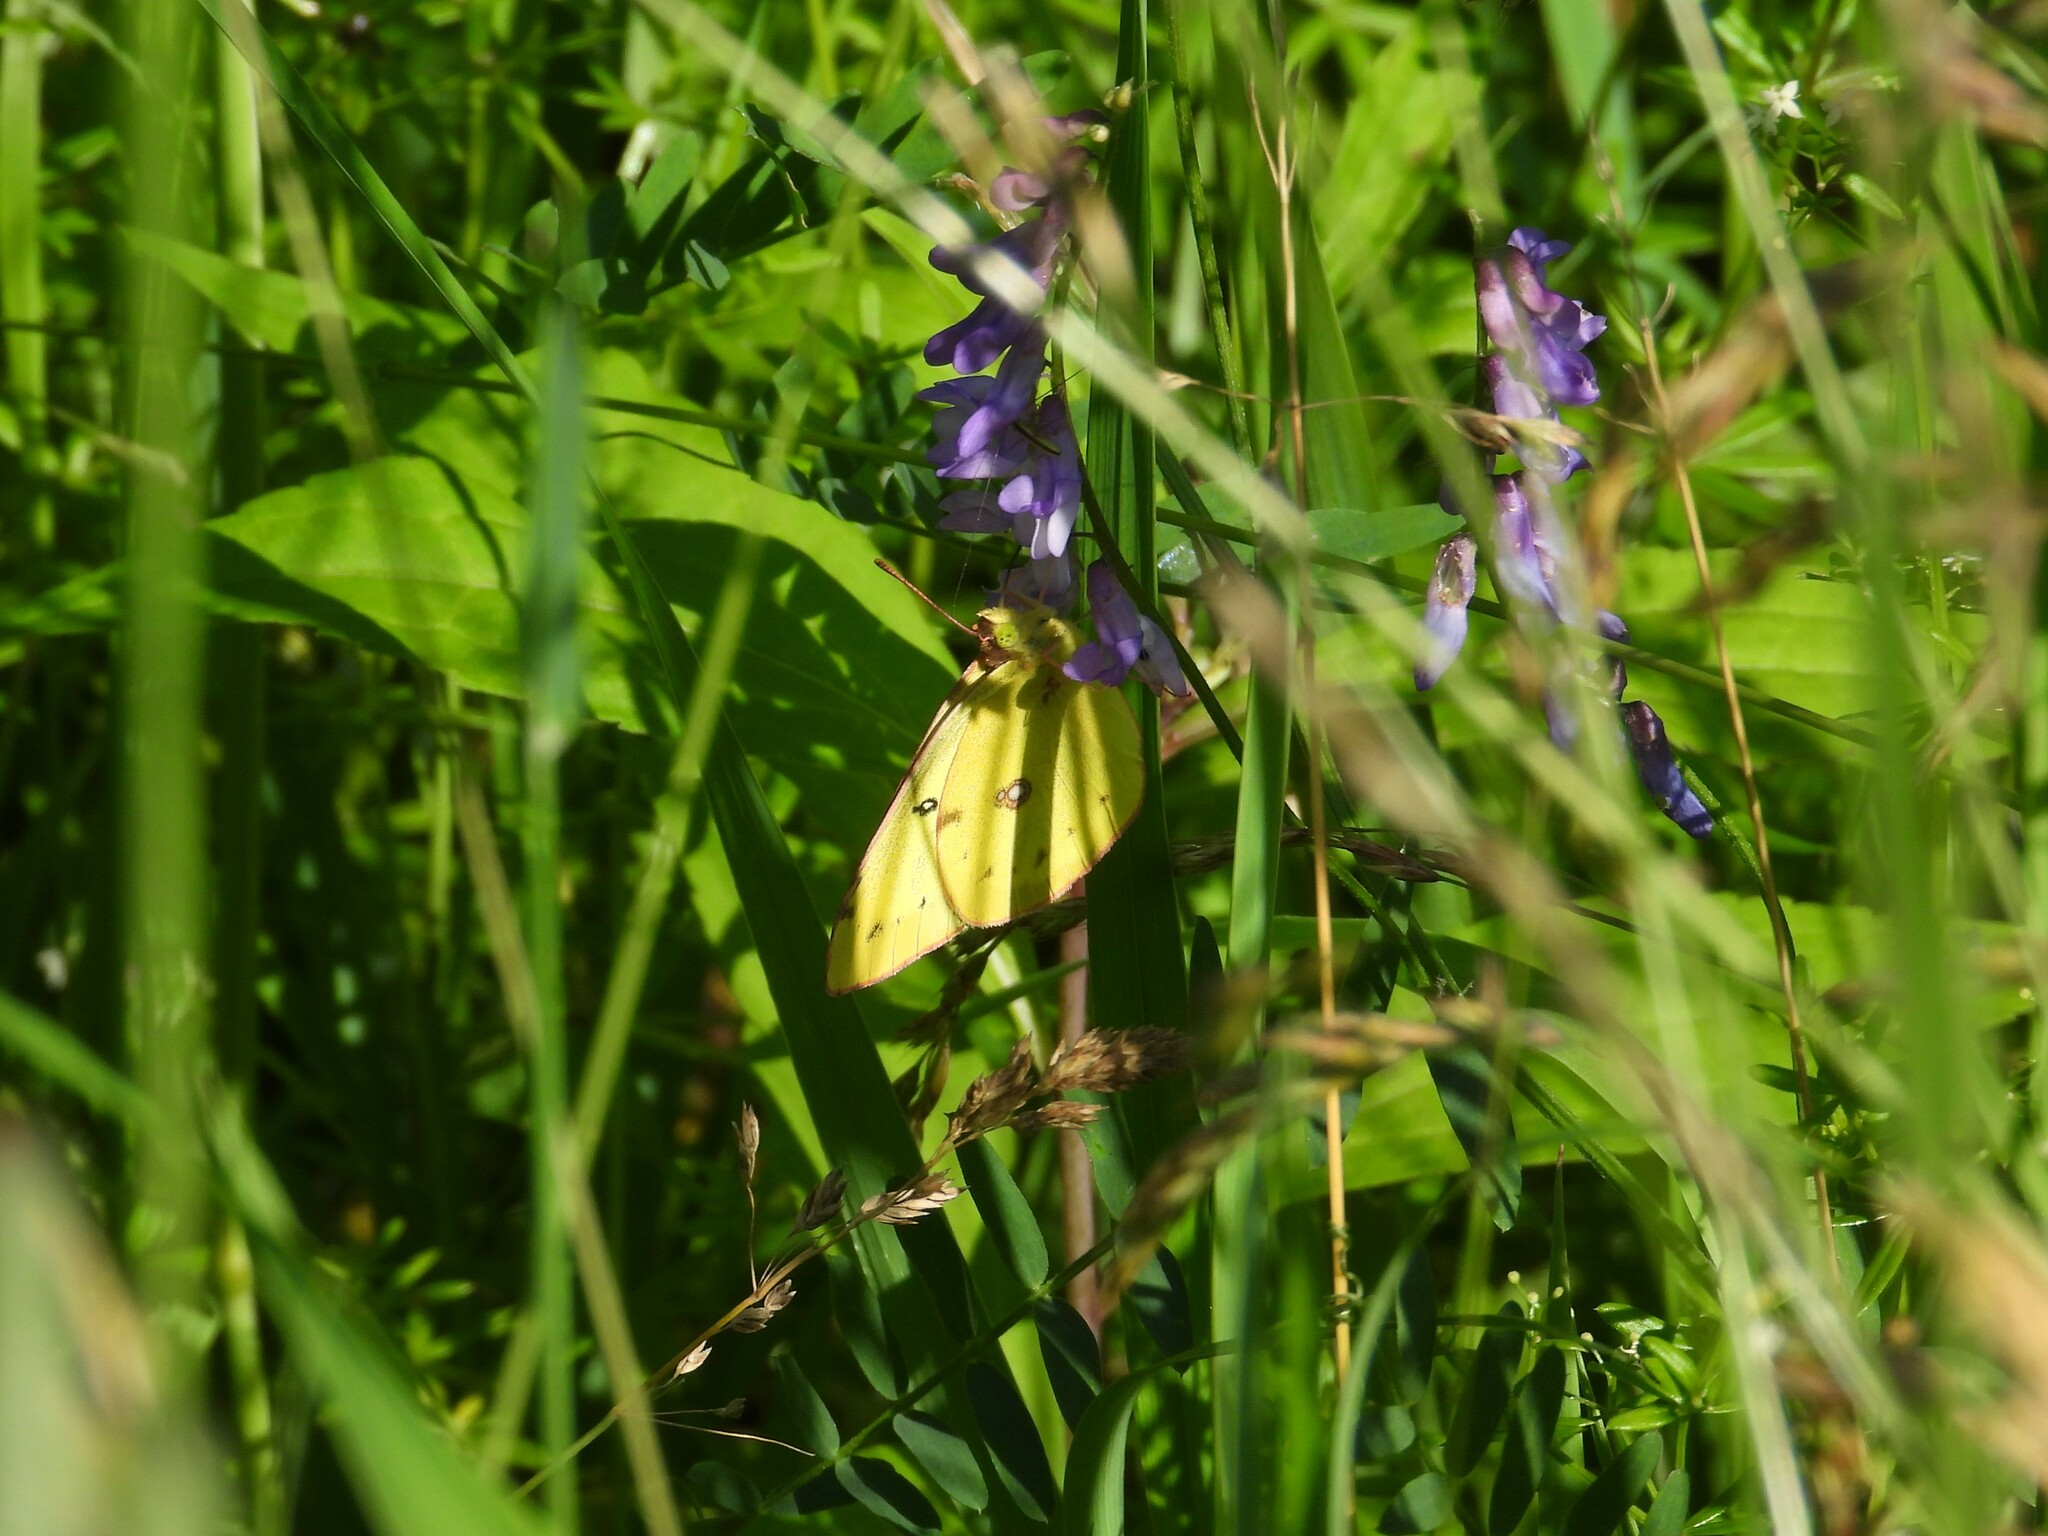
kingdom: Animalia
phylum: Arthropoda
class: Insecta
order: Lepidoptera
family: Pieridae
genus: Colias
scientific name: Colias philodice
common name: Clouded sulphur
